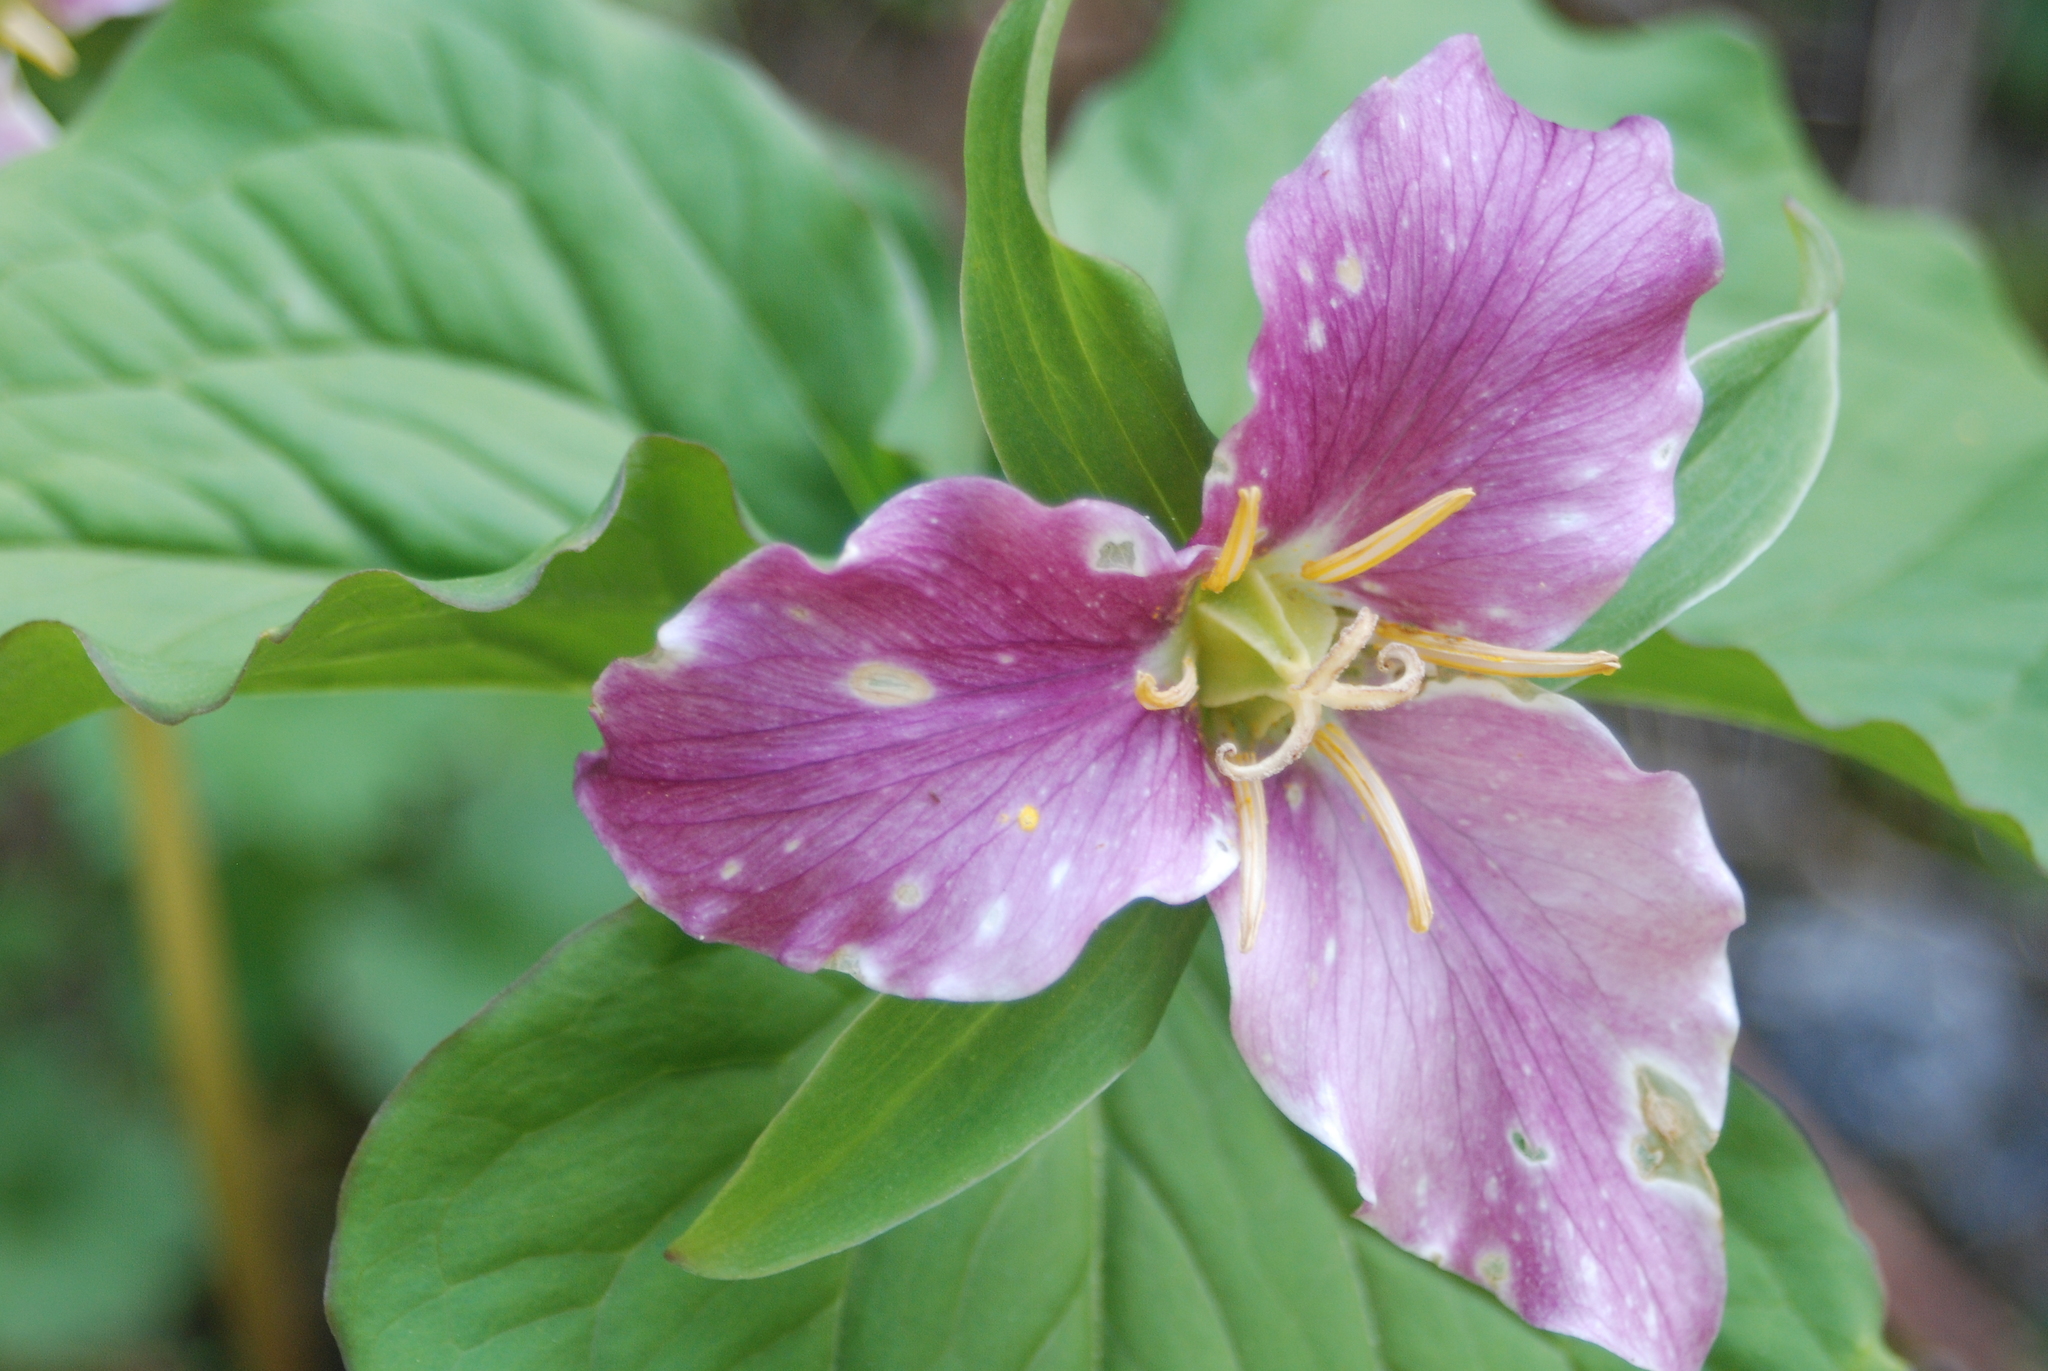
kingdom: Plantae
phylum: Tracheophyta
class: Liliopsida
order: Liliales
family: Melanthiaceae
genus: Trillium
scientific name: Trillium ovatum
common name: Pacific trillium
